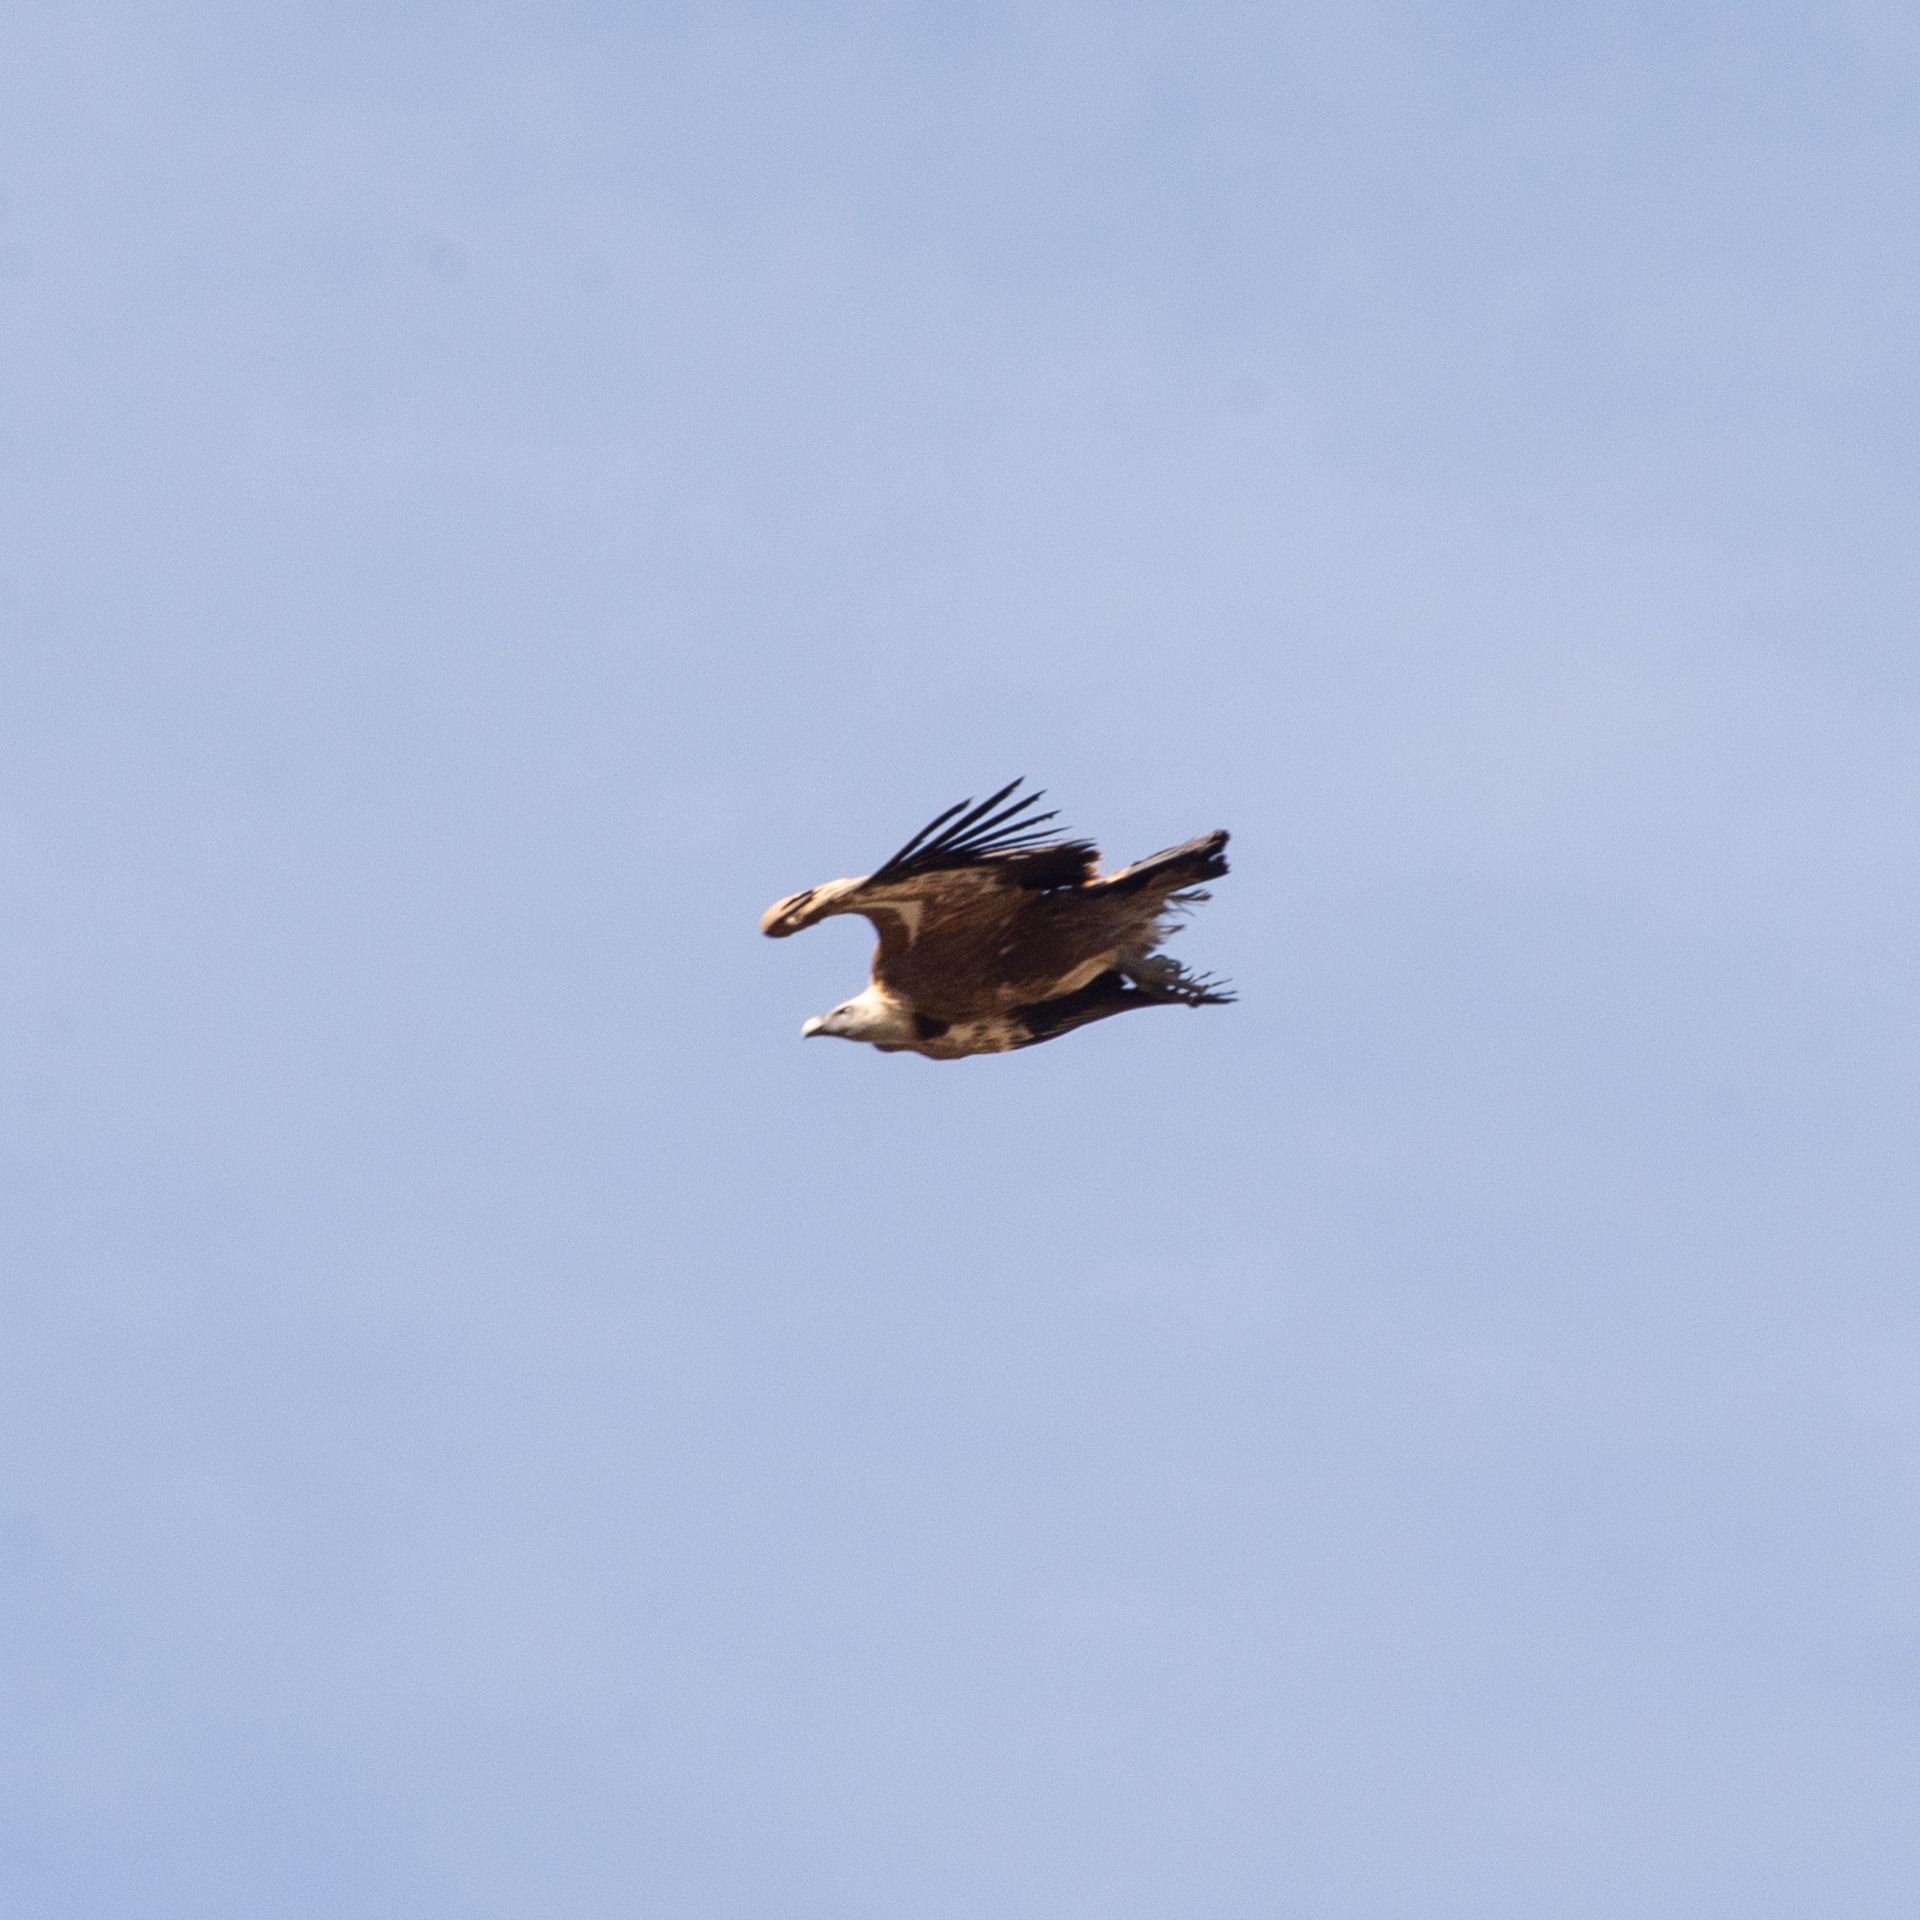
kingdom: Animalia
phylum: Chordata
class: Aves
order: Accipitriformes
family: Accipitridae
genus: Gyps
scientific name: Gyps fulvus
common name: Griffon vulture
